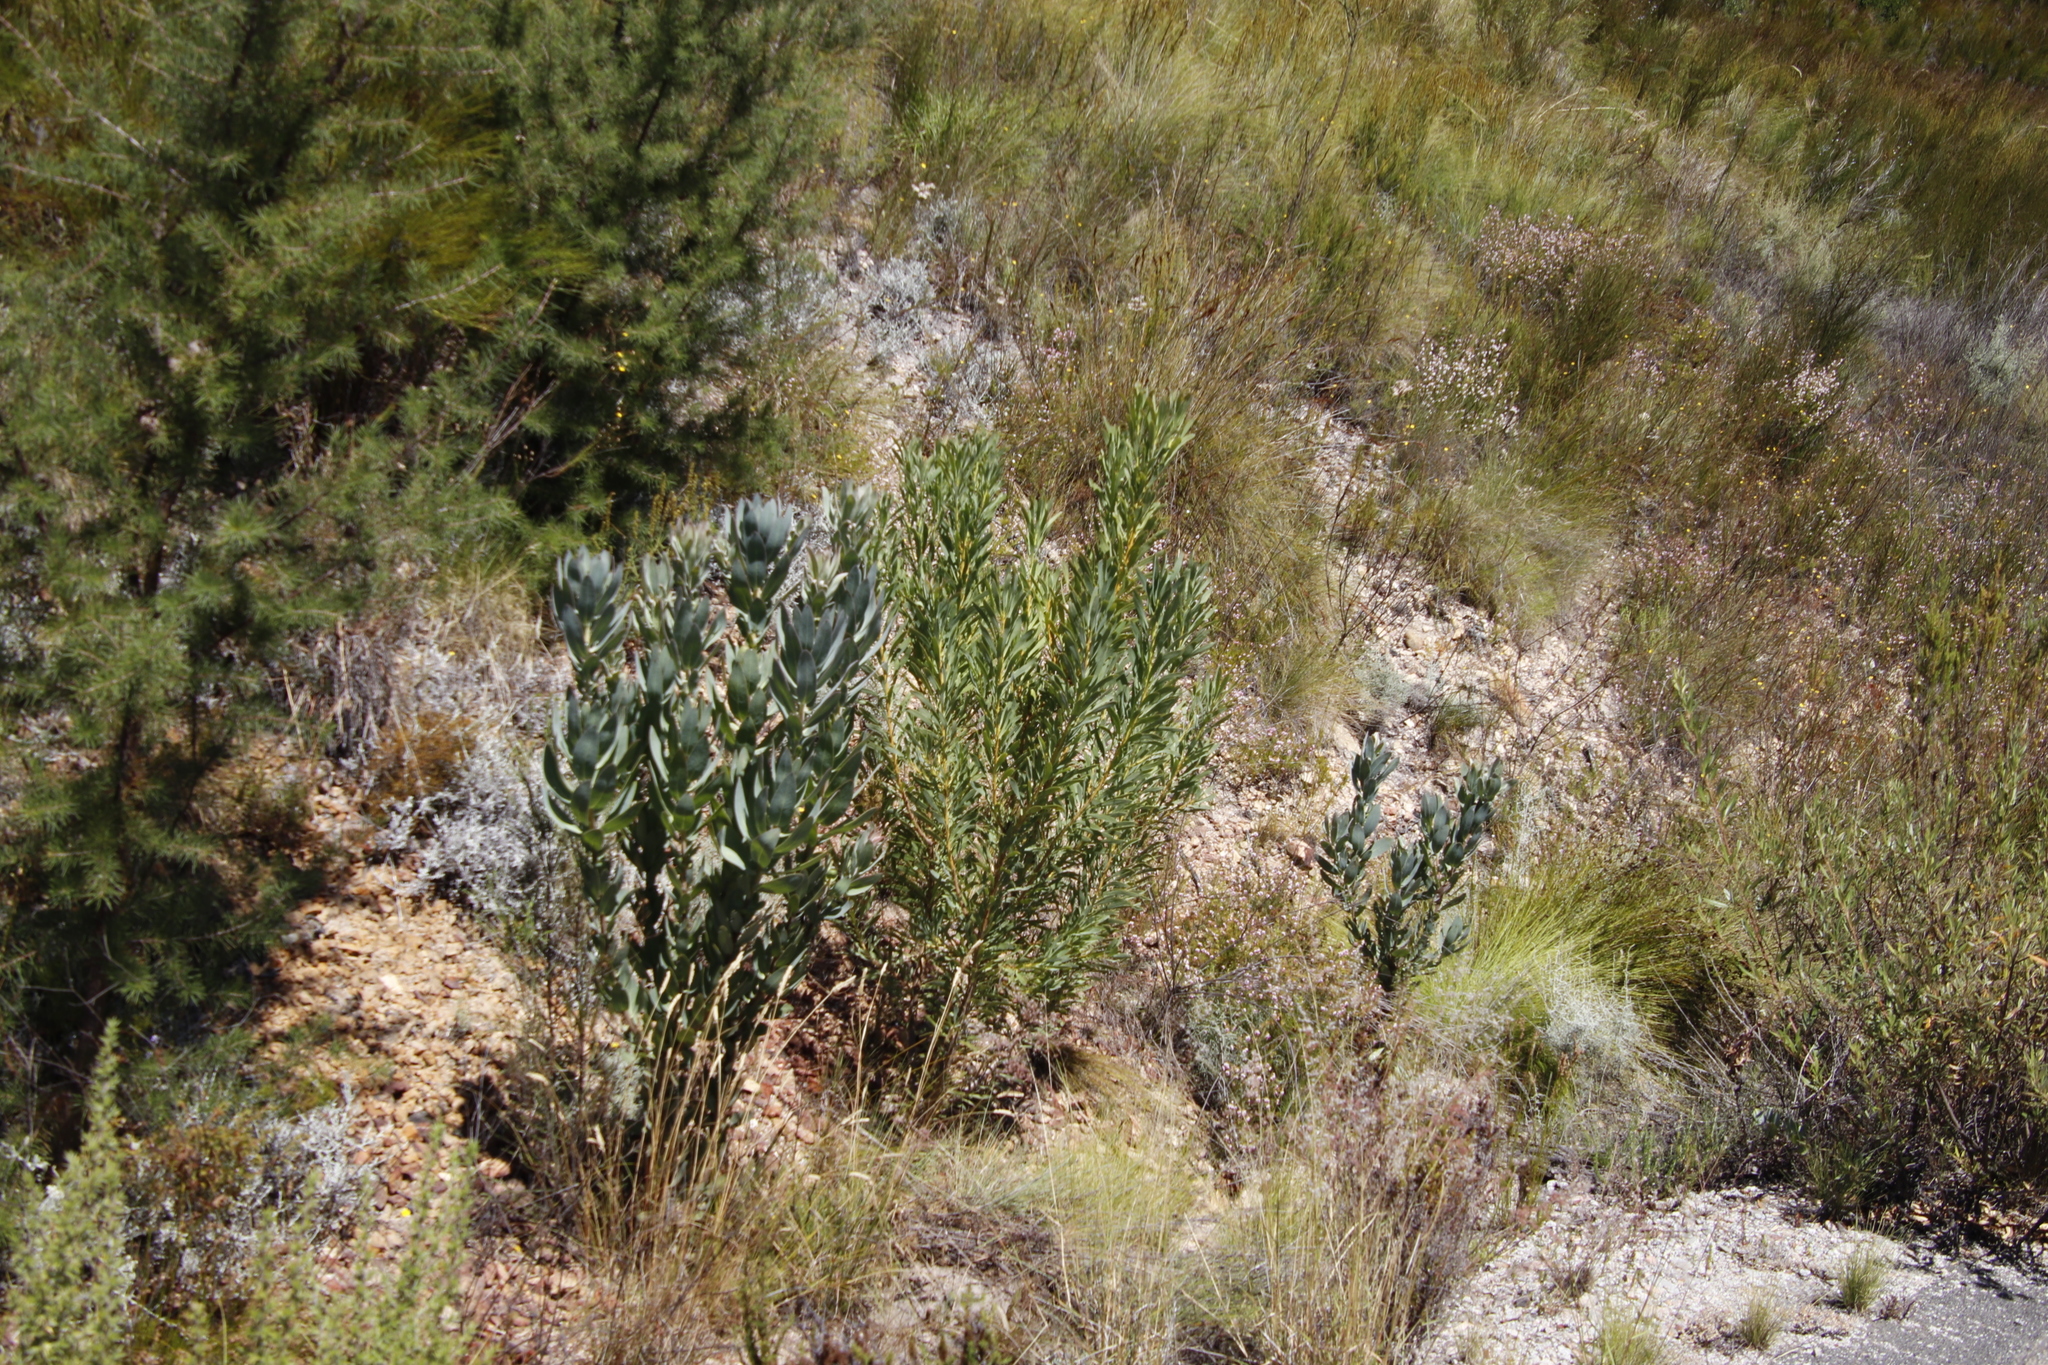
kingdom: Plantae
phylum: Tracheophyta
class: Magnoliopsida
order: Proteales
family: Proteaceae
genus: Protea
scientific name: Protea laurifolia
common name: Grey-leaf sugarbsh
